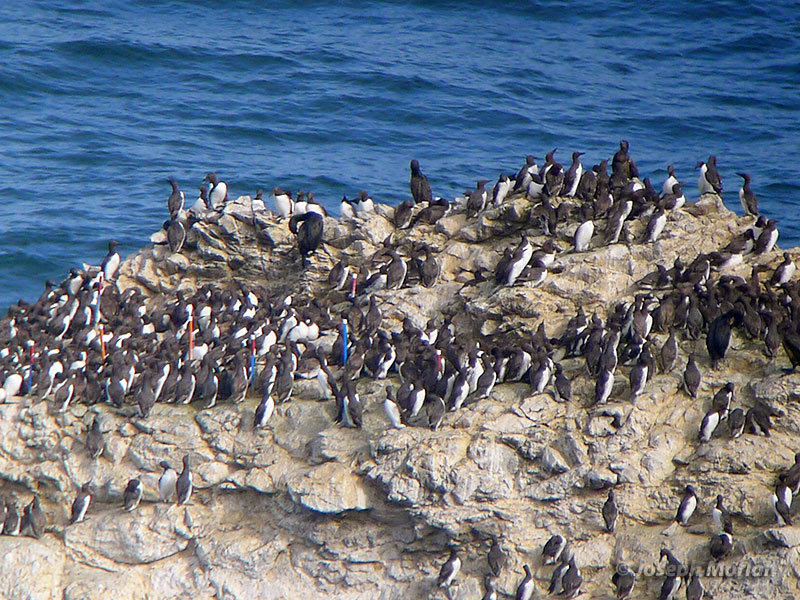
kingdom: Animalia
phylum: Chordata
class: Aves
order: Charadriiformes
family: Alcidae
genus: Uria
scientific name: Uria aalge
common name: Common murre
